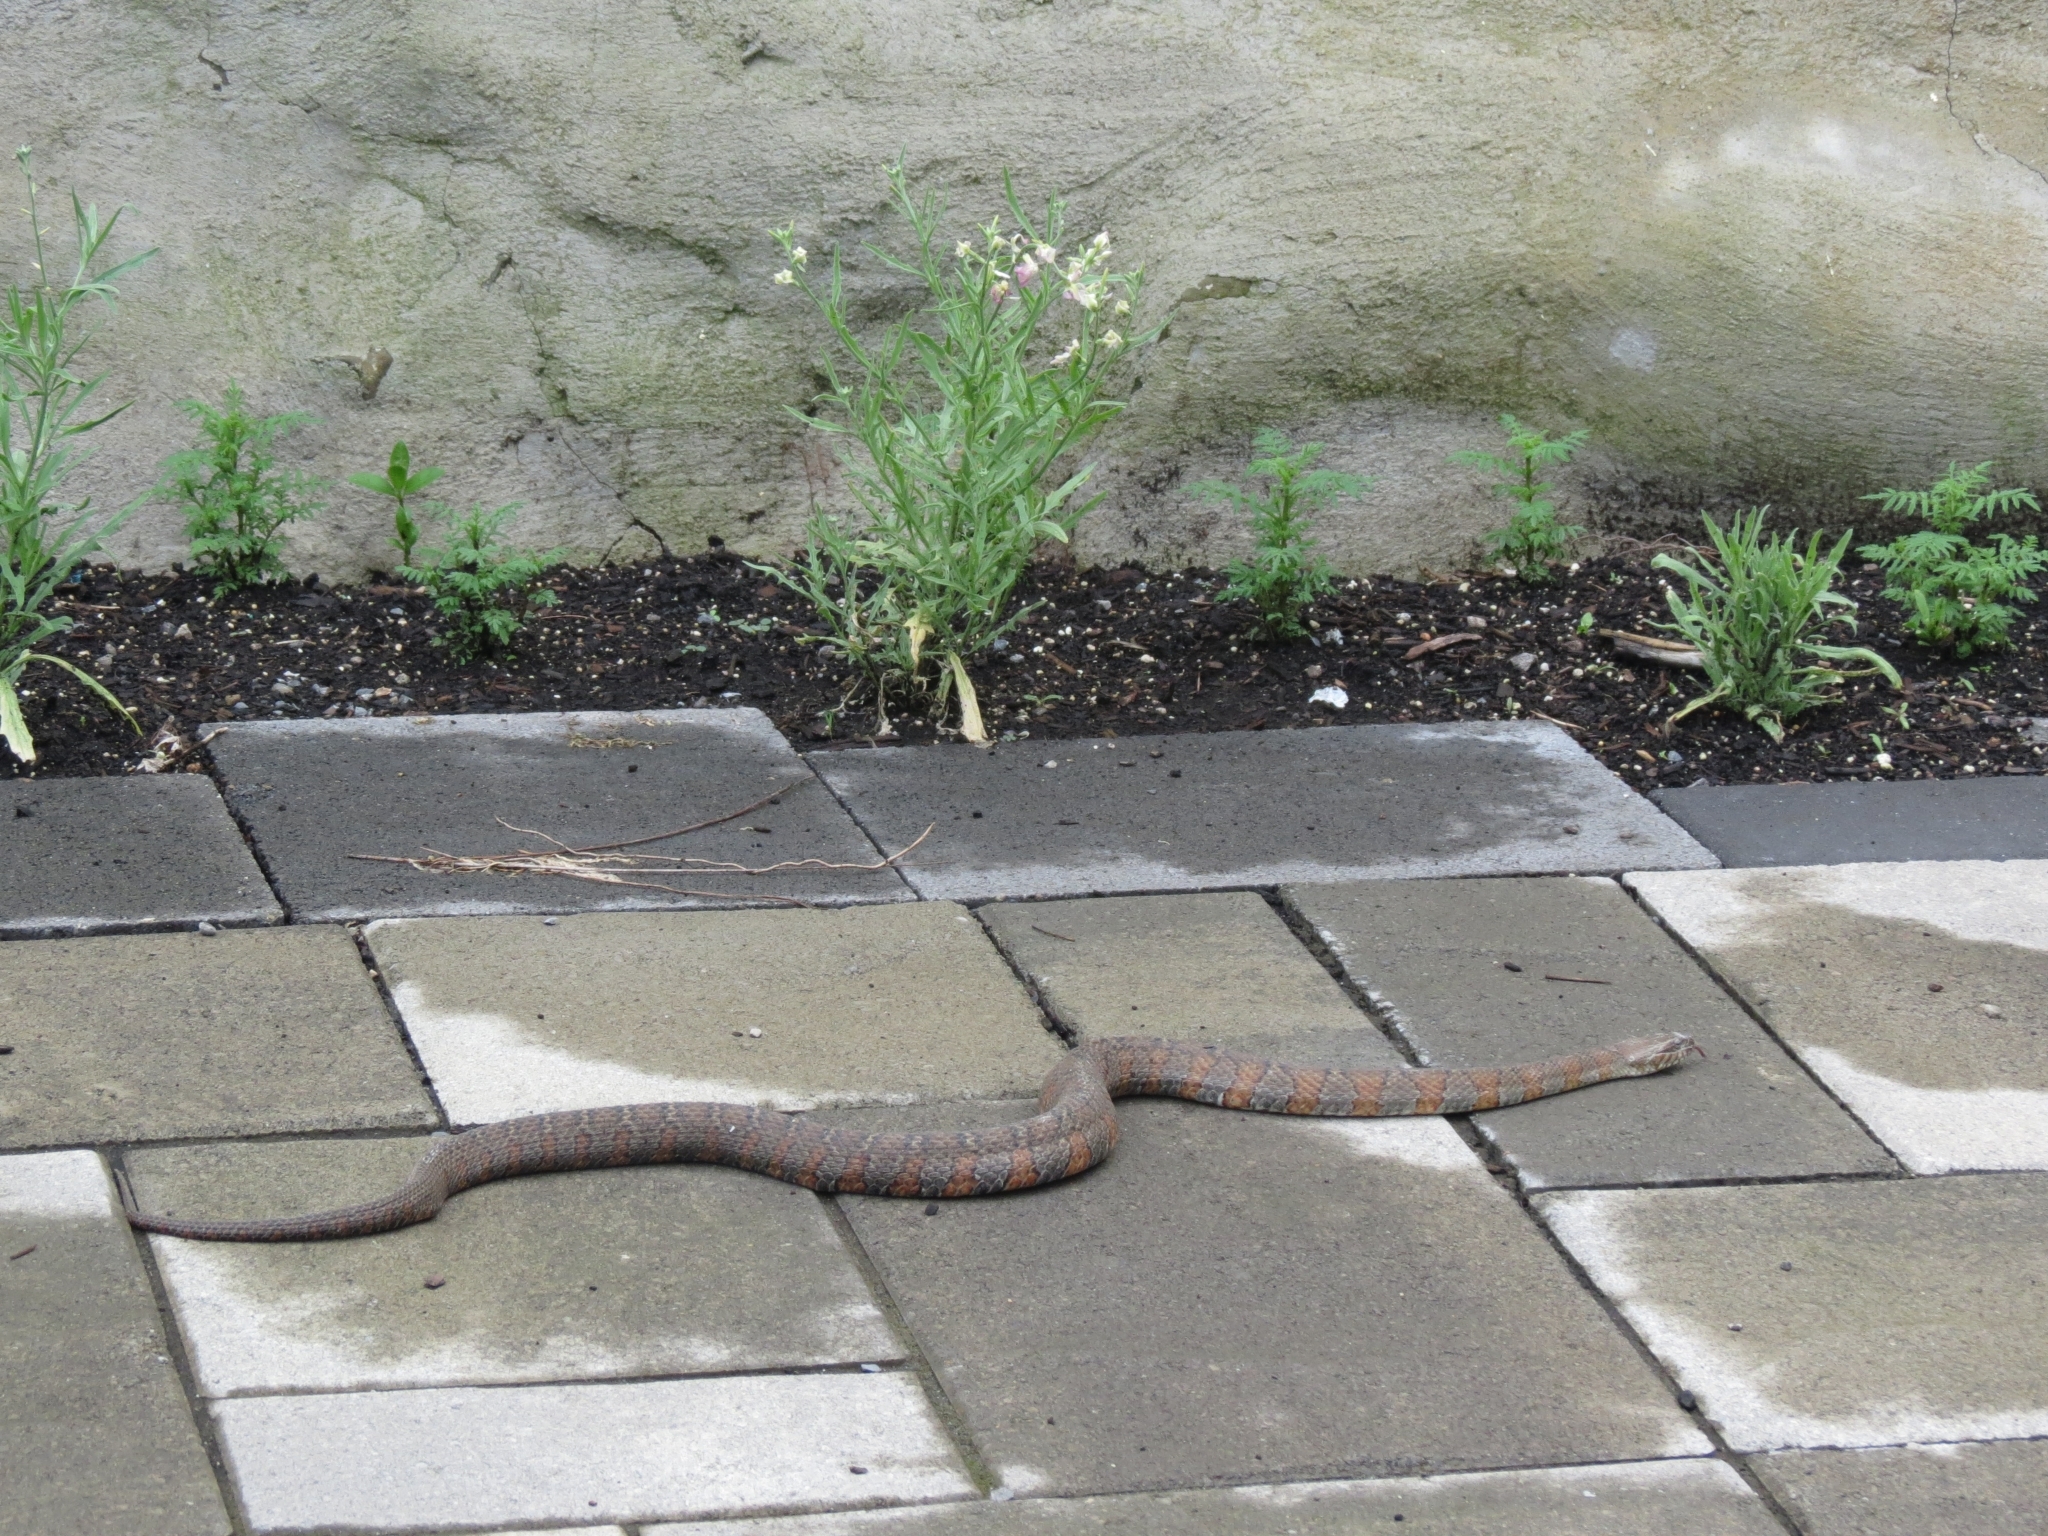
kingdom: Animalia
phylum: Chordata
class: Squamata
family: Colubridae
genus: Nerodia
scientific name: Nerodia sipedon
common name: Northern water snake
